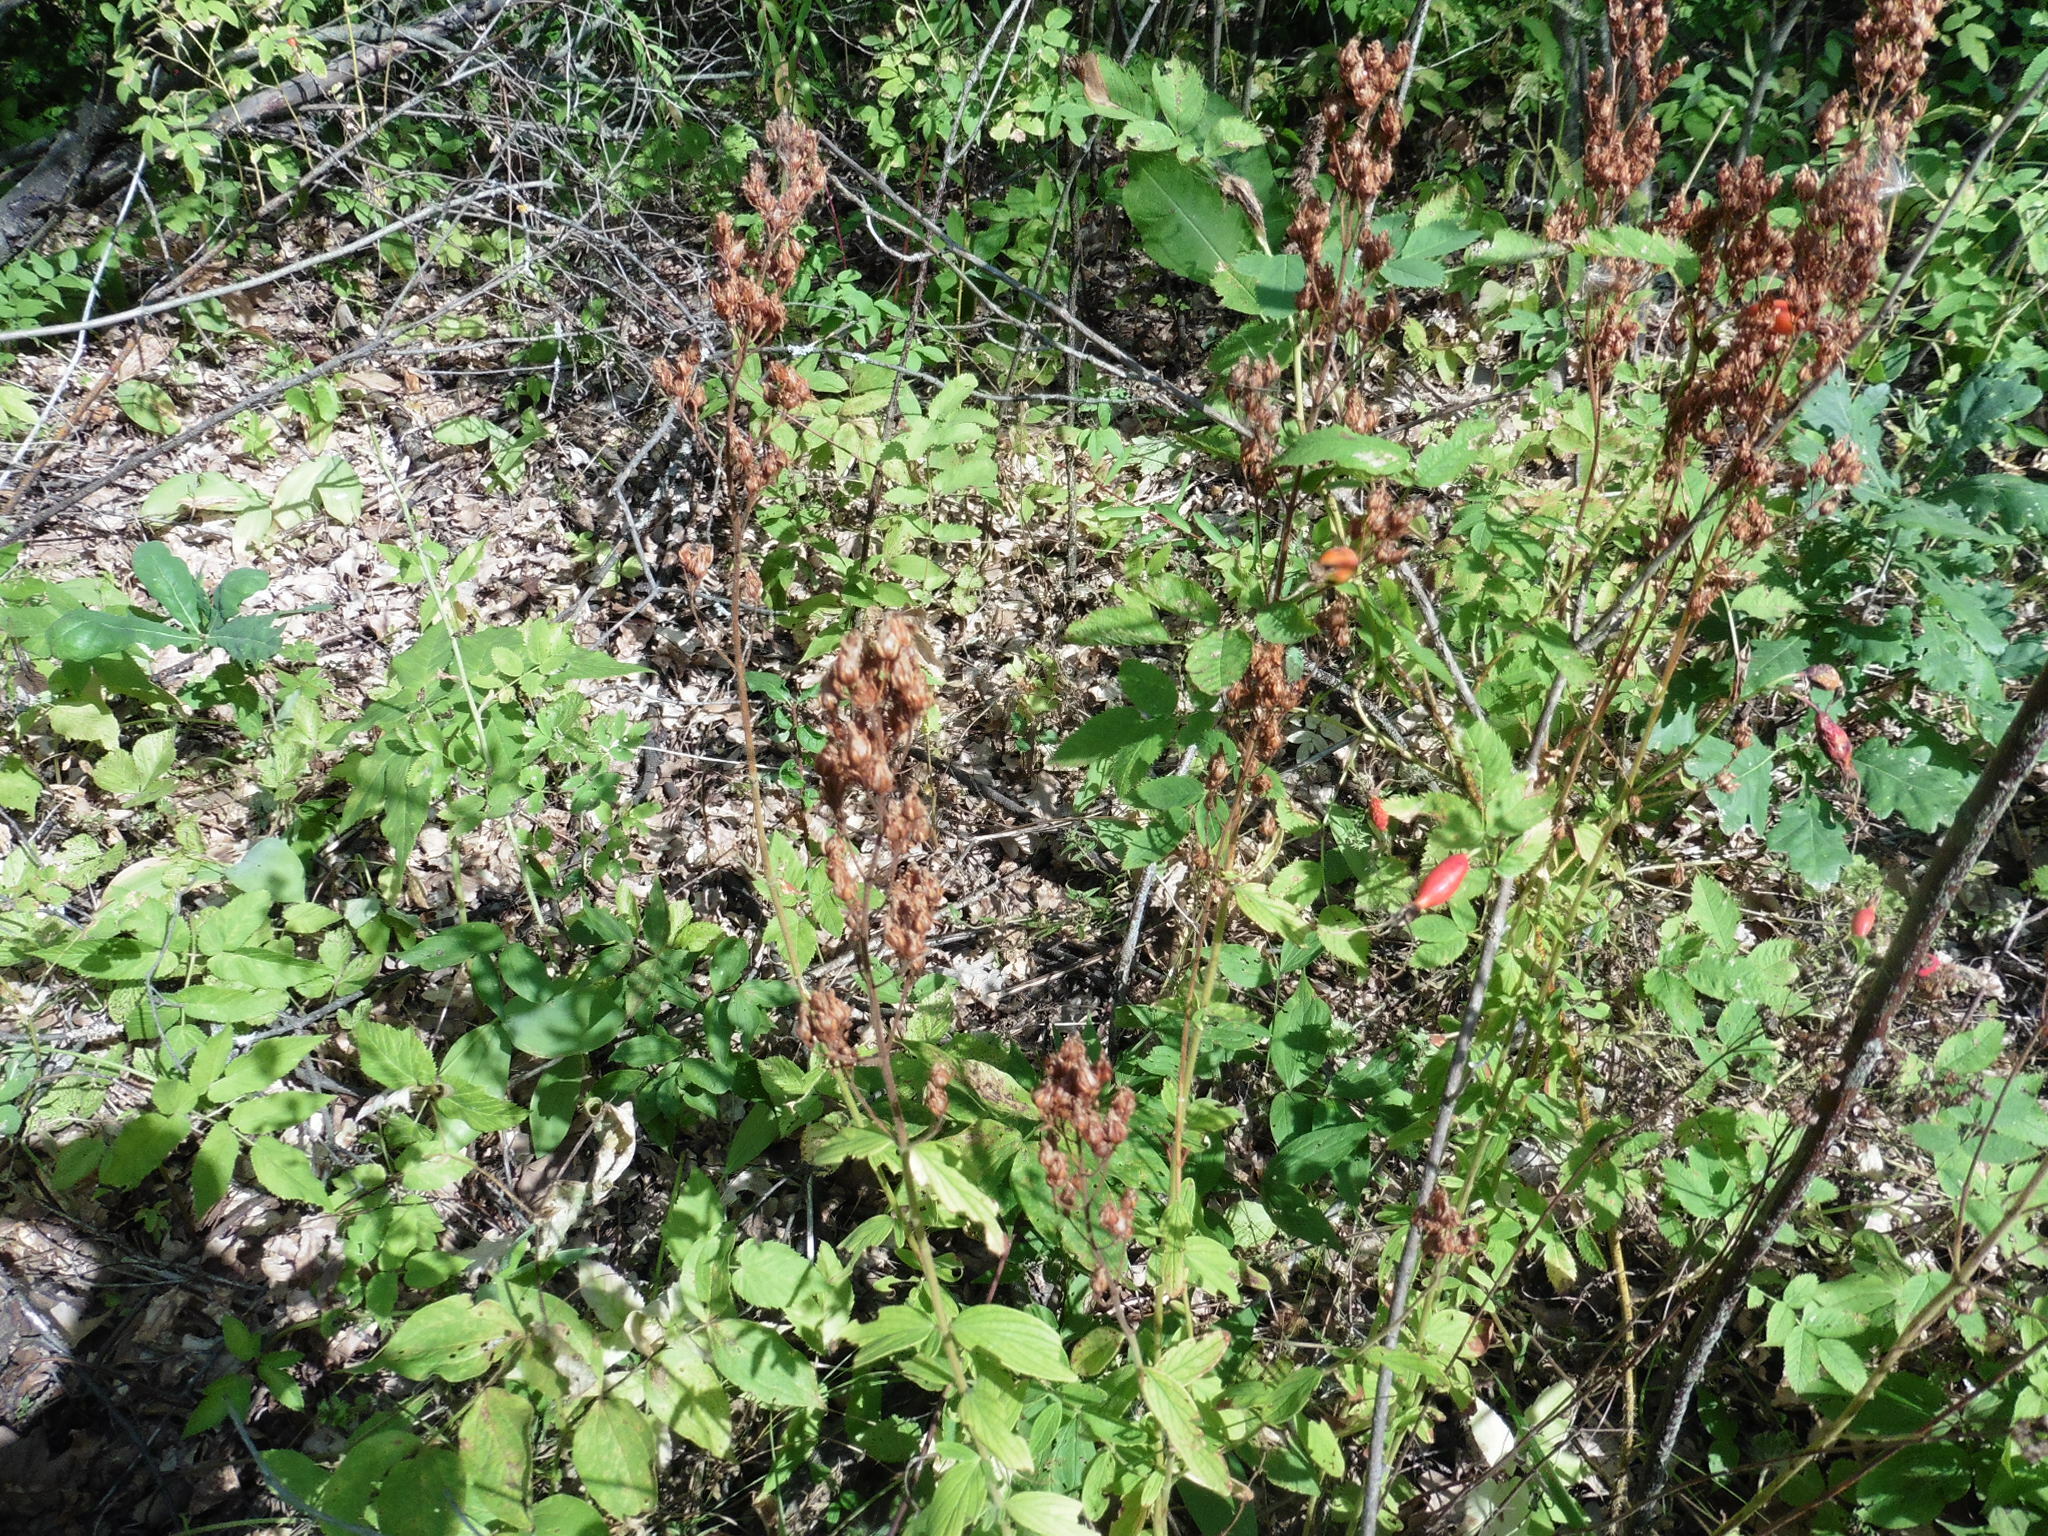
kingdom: Plantae
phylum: Tracheophyta
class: Magnoliopsida
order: Malpighiales
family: Hypericaceae
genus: Hypericum
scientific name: Hypericum hirsutum
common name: Hairy st. john's-wort
